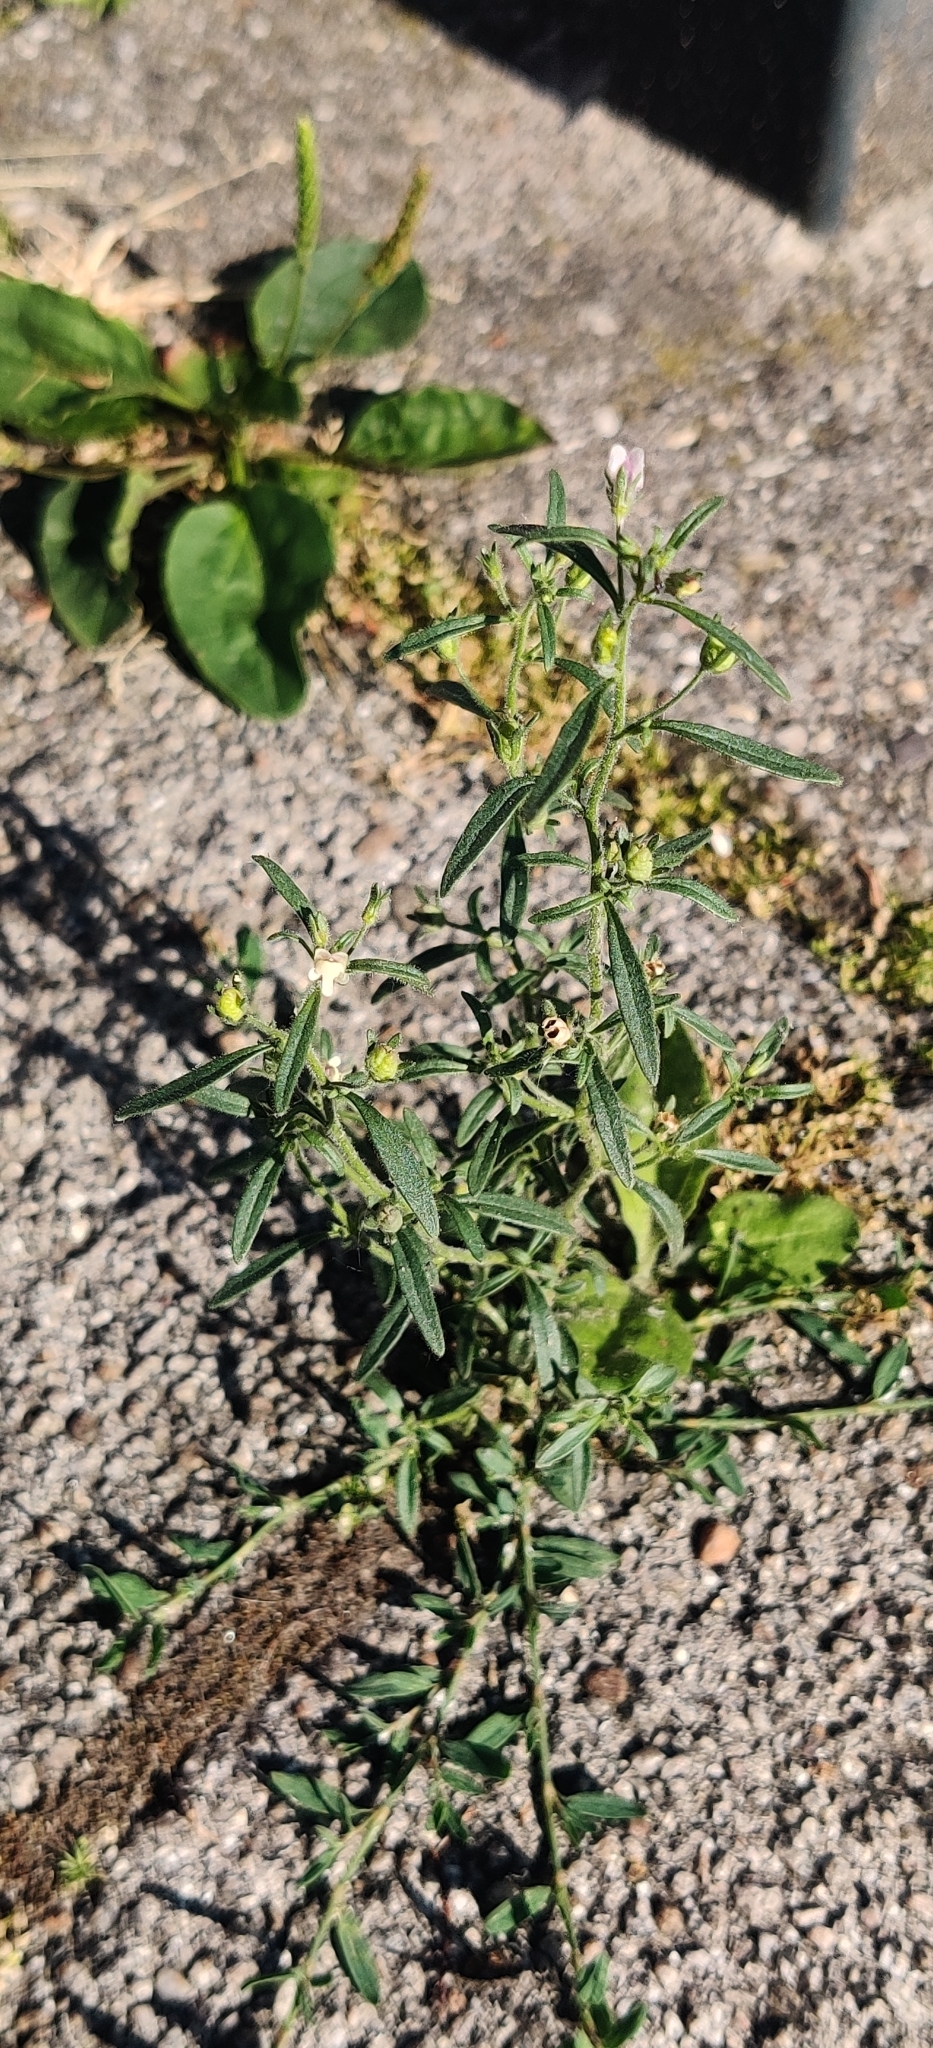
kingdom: Plantae
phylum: Tracheophyta
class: Magnoliopsida
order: Lamiales
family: Plantaginaceae
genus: Chaenorhinum
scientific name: Chaenorhinum minus
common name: Dwarf snapdragon
